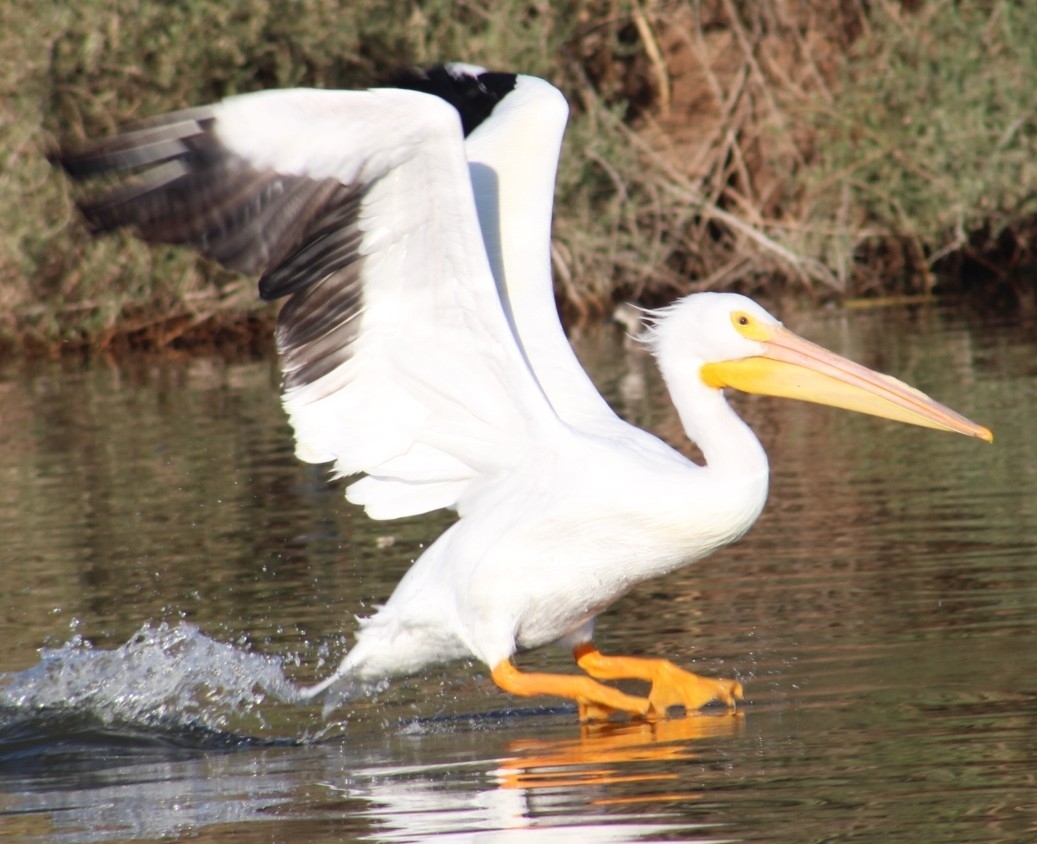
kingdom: Animalia
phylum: Chordata
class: Aves
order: Pelecaniformes
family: Pelecanidae
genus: Pelecanus
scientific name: Pelecanus erythrorhynchos
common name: American white pelican
